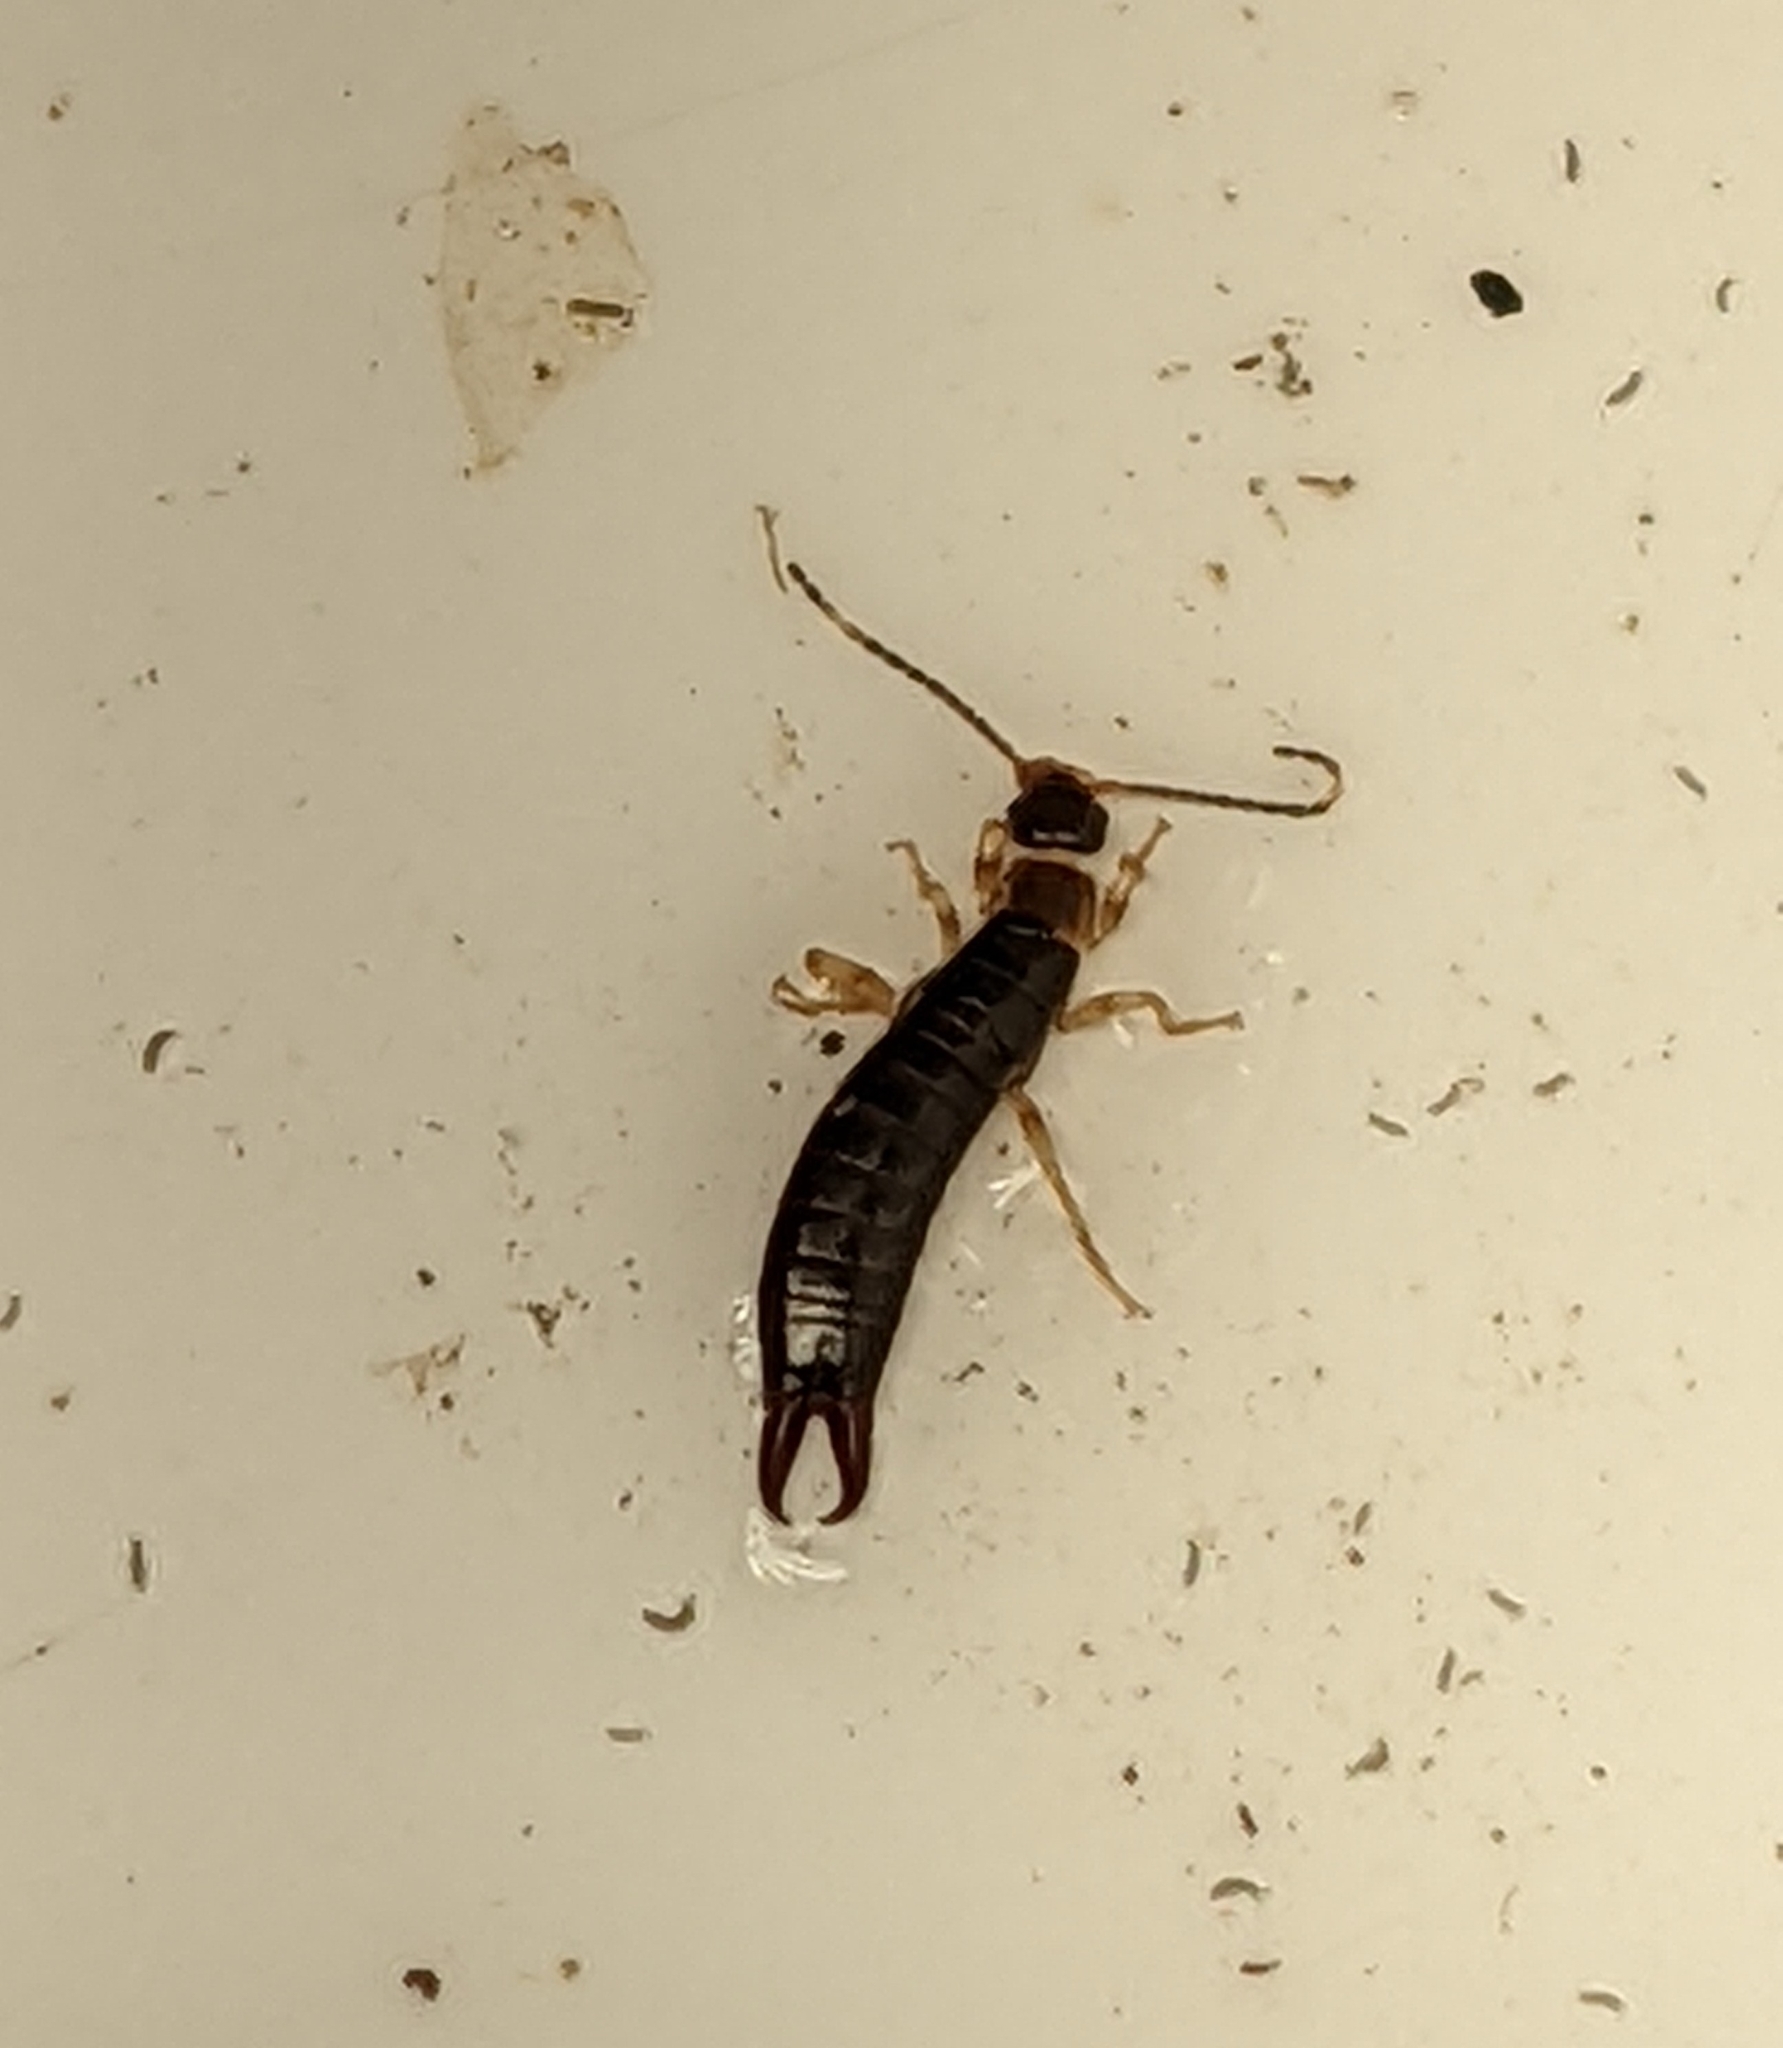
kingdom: Animalia
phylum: Arthropoda
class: Insecta
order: Dermaptera
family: Forficulidae
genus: Forficula
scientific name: Forficula
